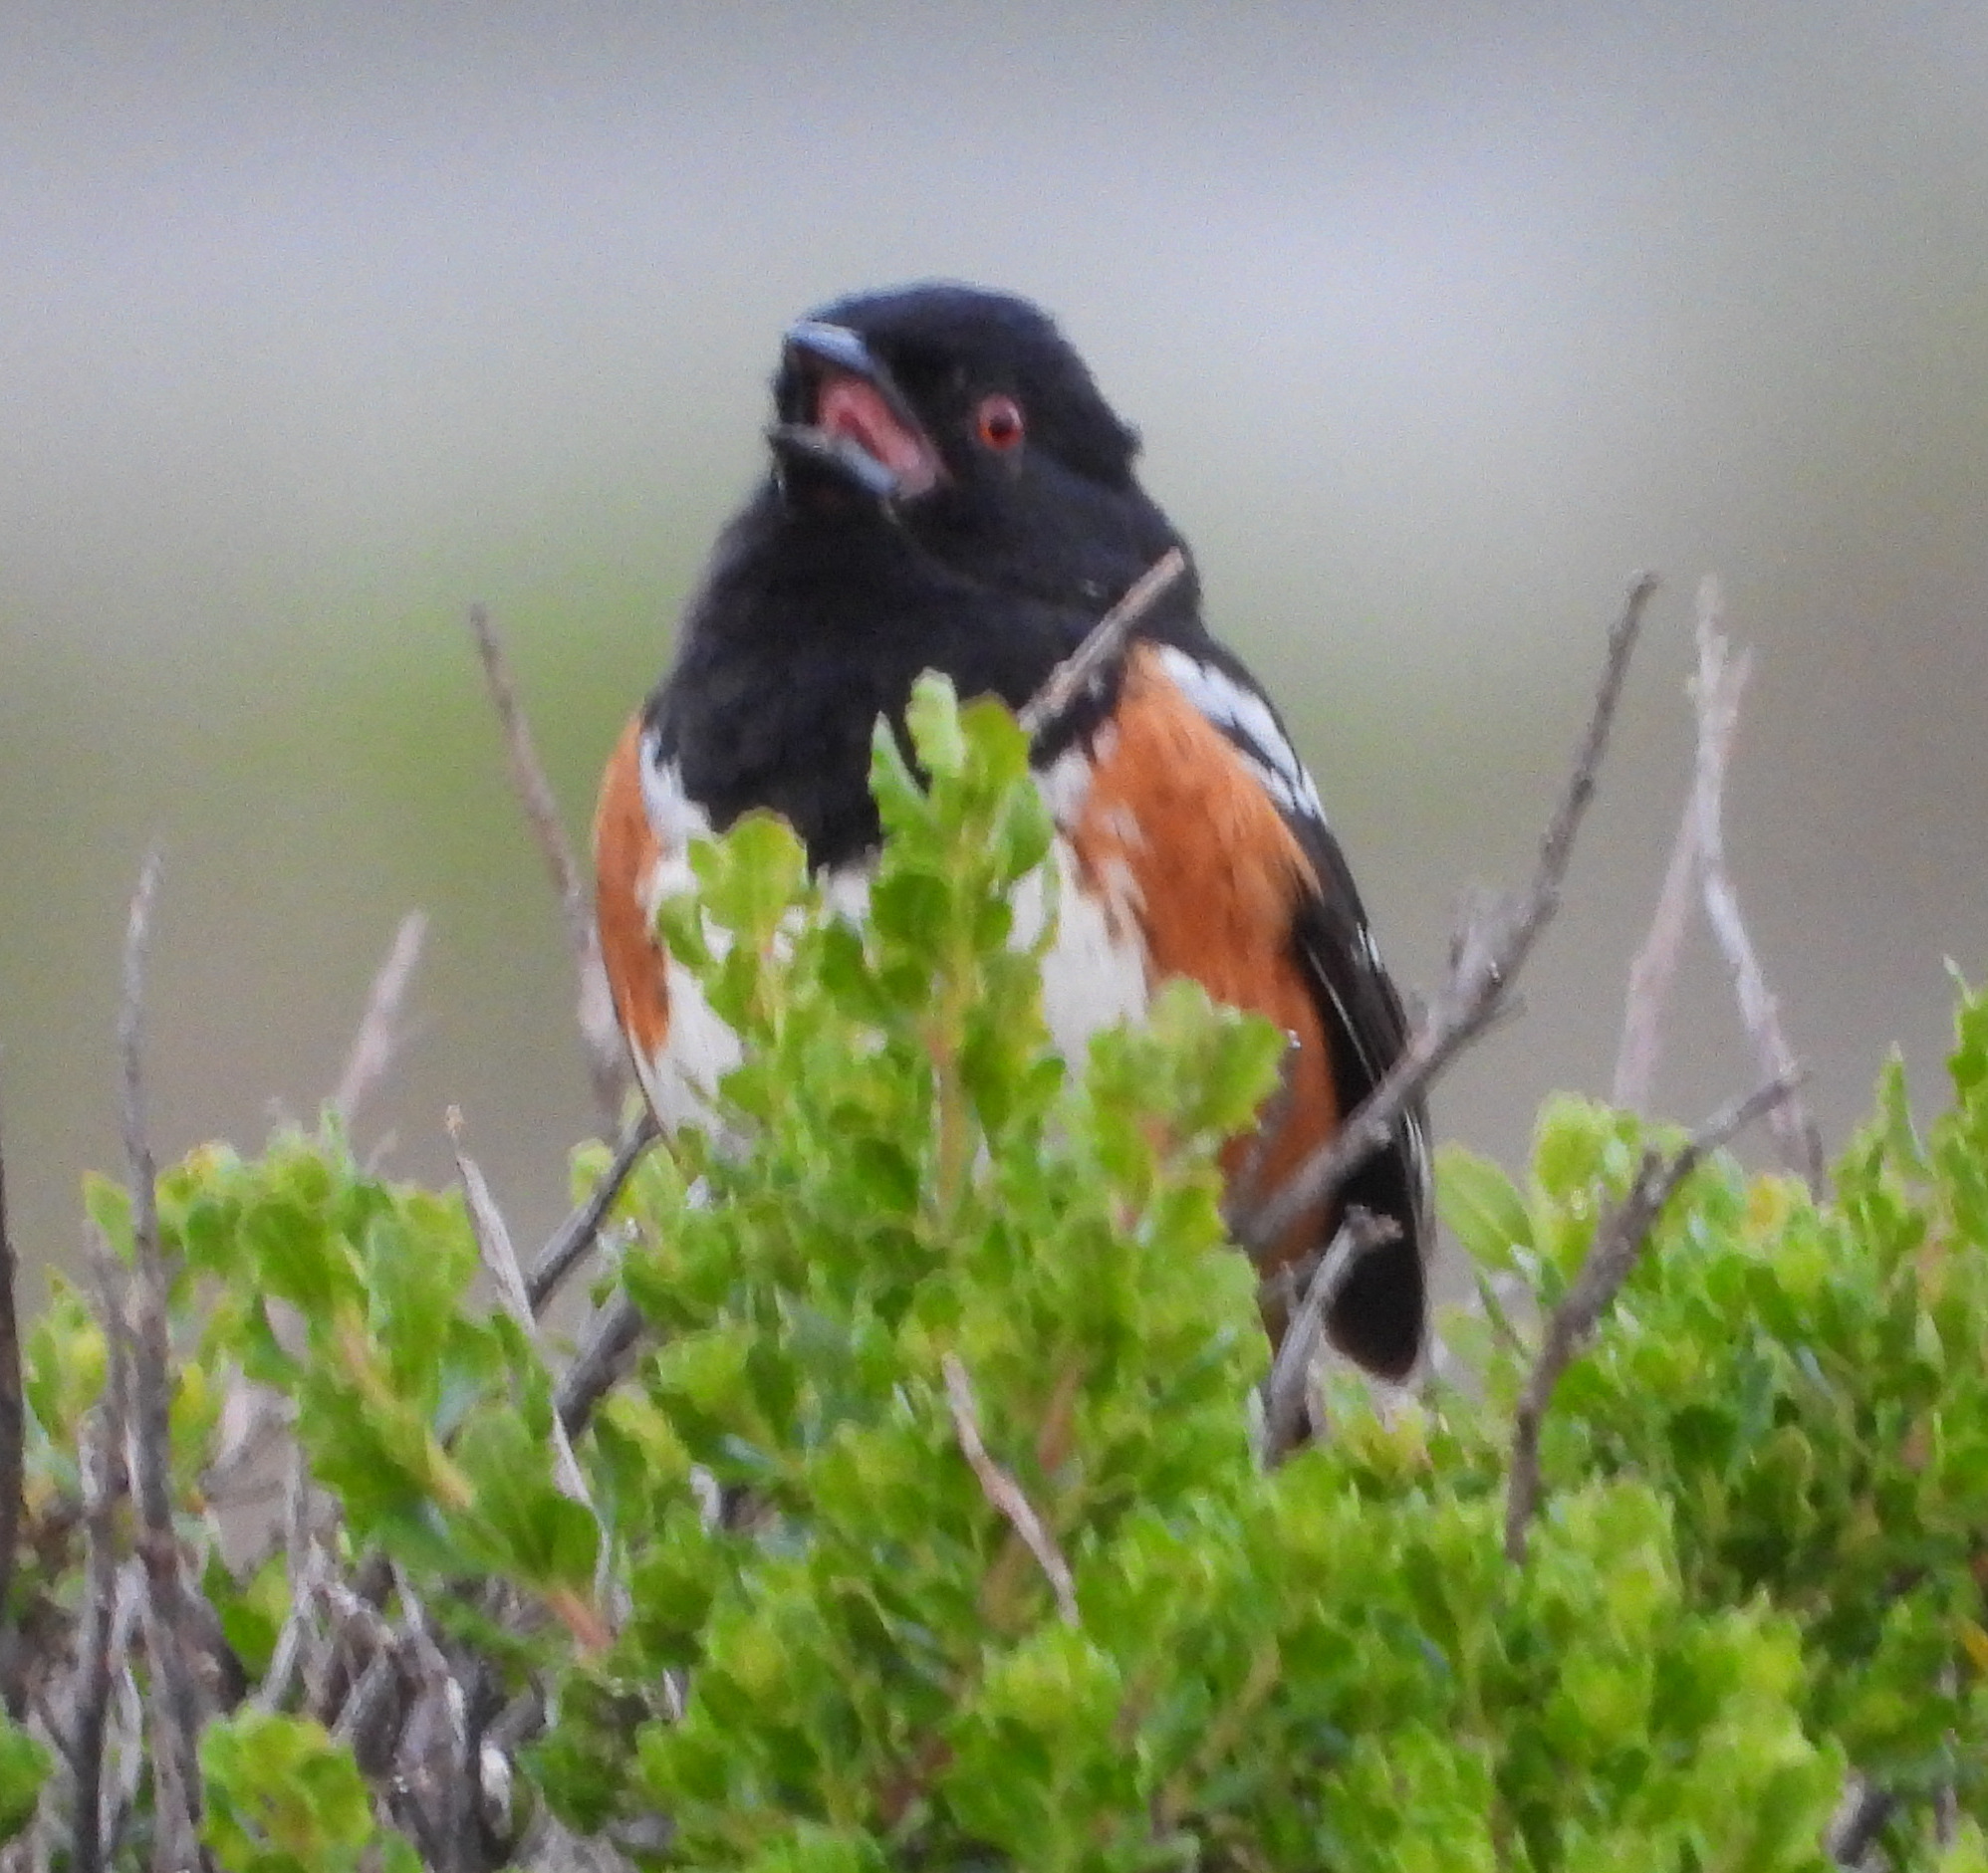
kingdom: Animalia
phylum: Chordata
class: Aves
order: Passeriformes
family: Passerellidae
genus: Pipilo
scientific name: Pipilo maculatus
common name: Spotted towhee
